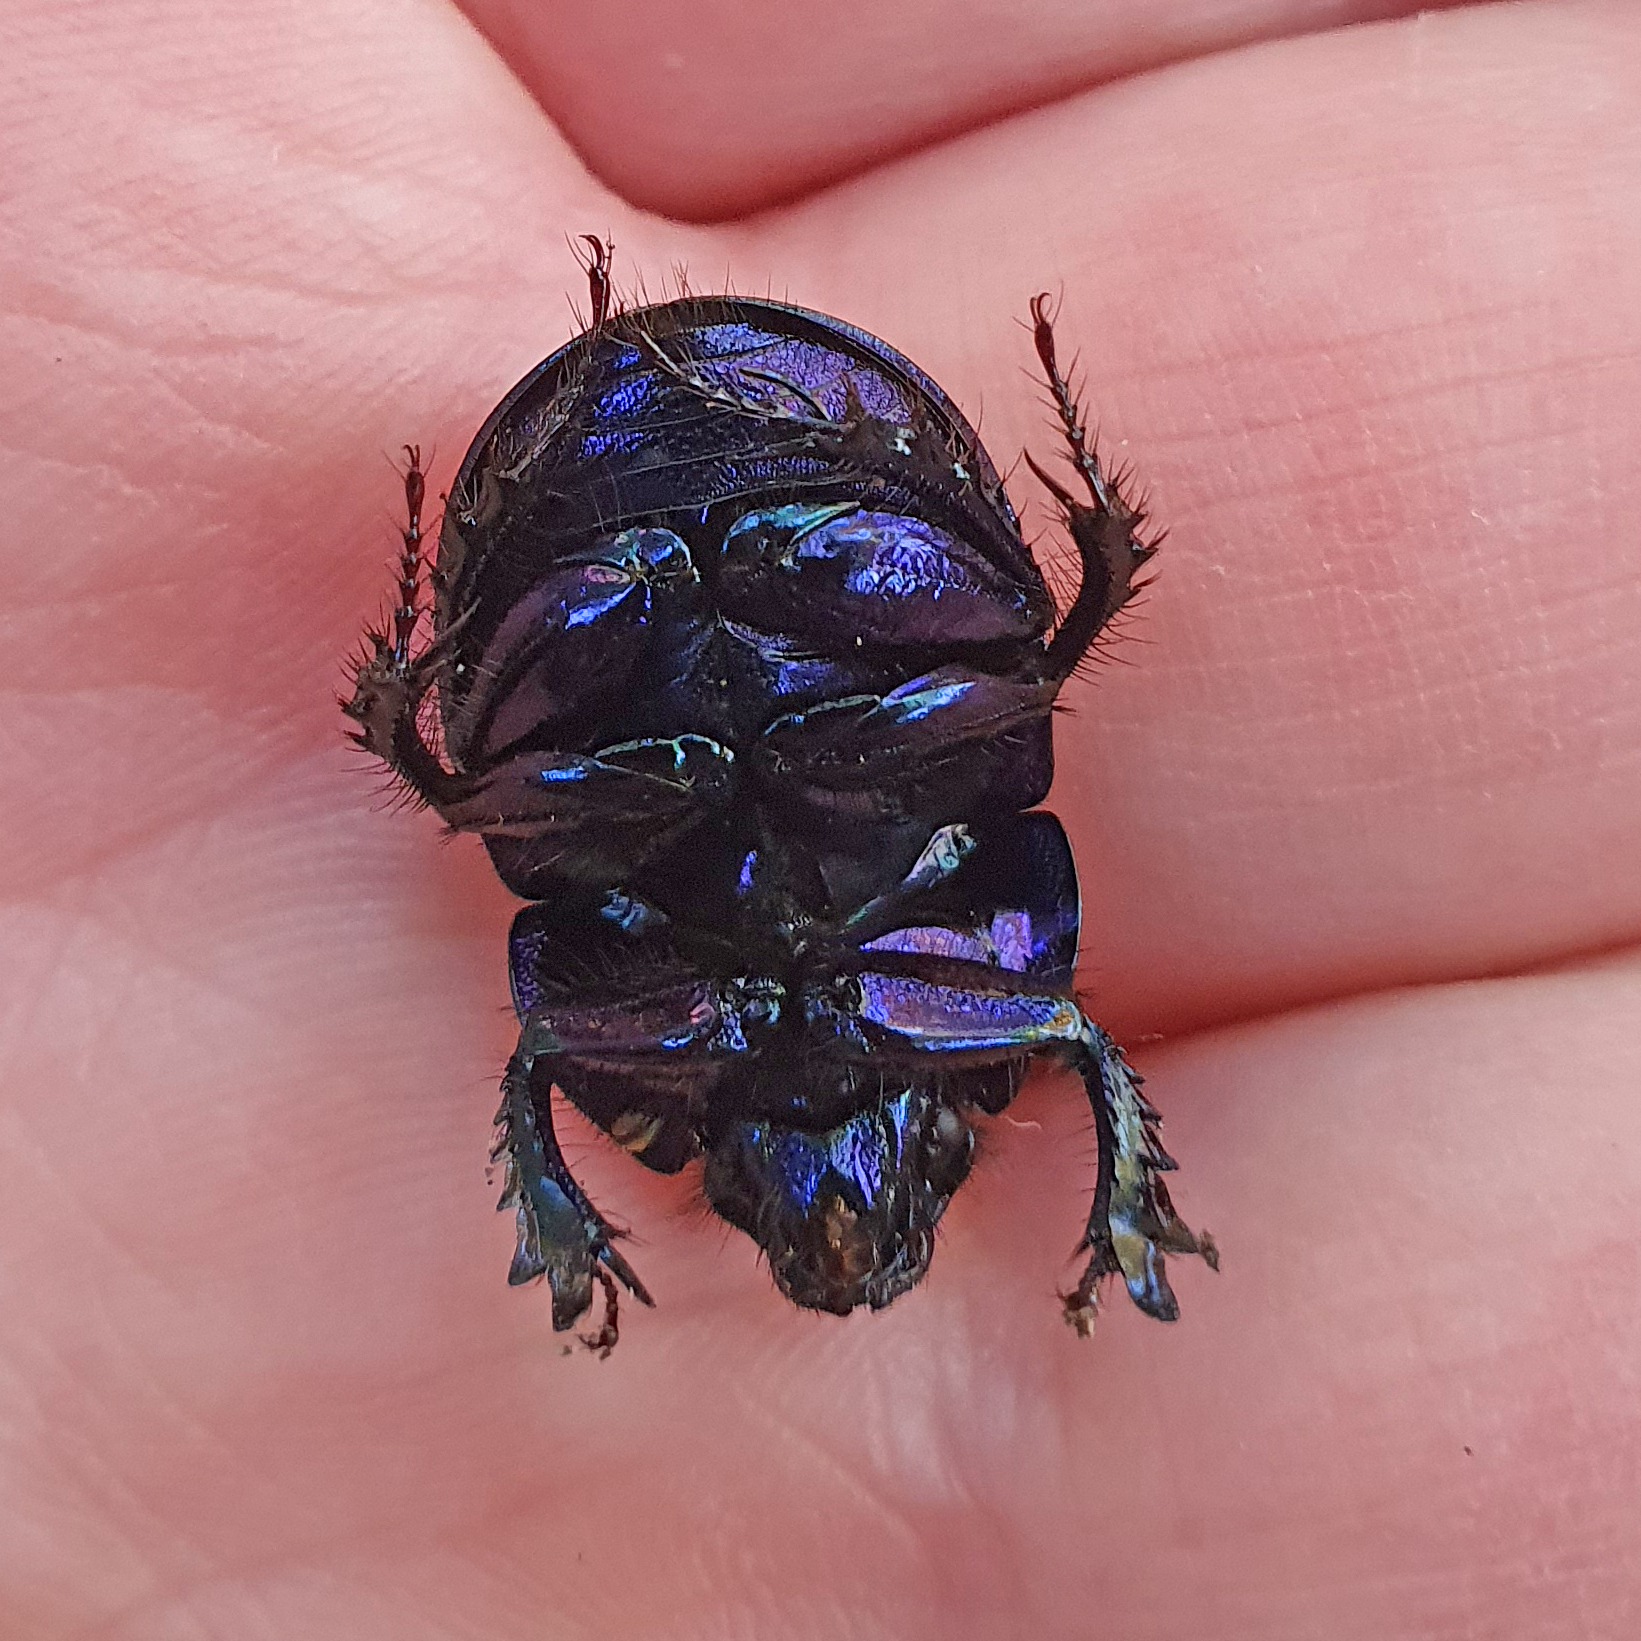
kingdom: Animalia
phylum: Arthropoda
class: Insecta
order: Coleoptera
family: Geotrupidae
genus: Anoplotrupes
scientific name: Anoplotrupes stercorosus
